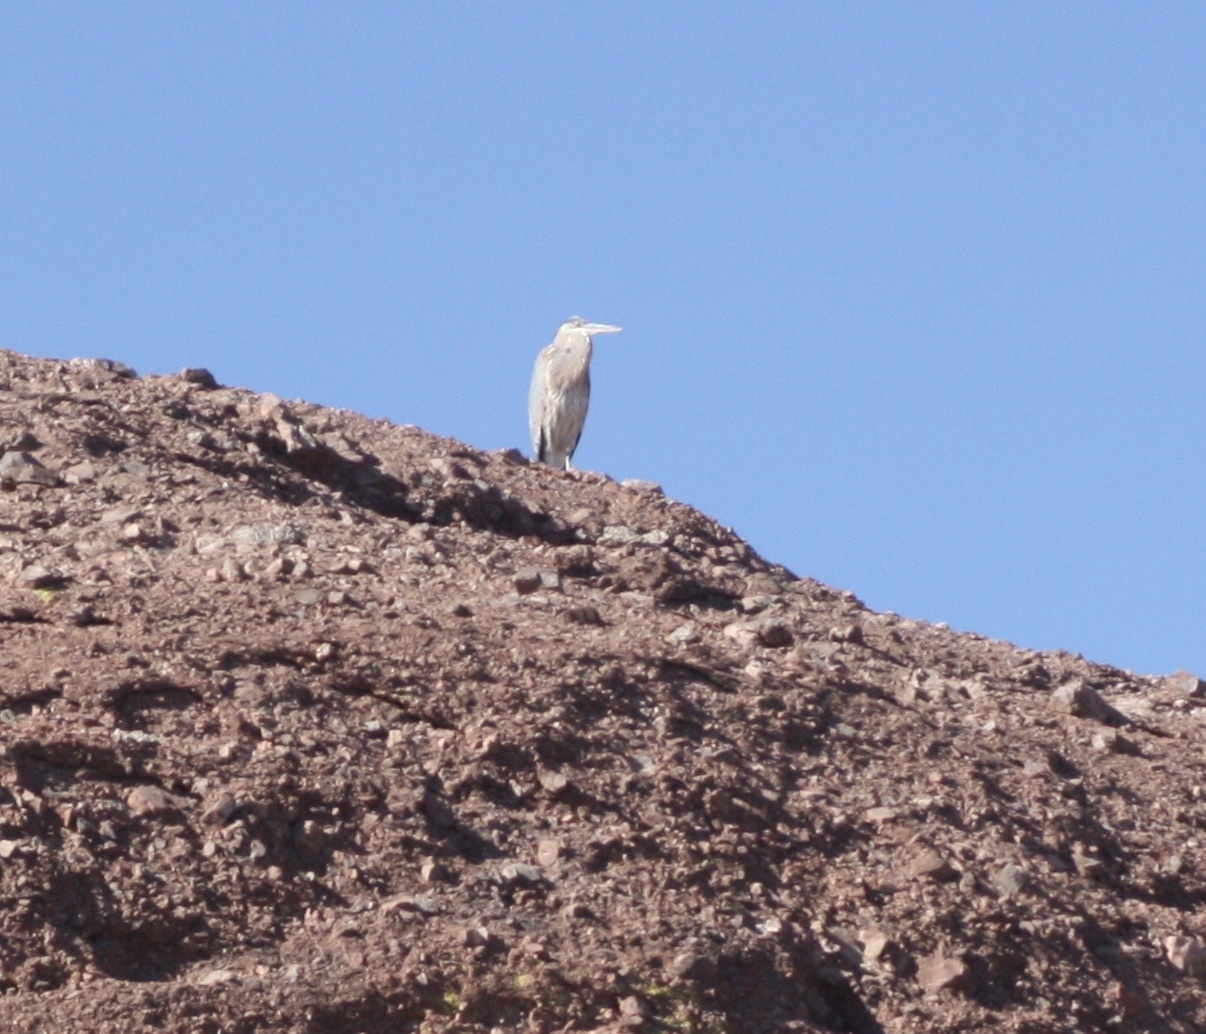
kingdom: Animalia
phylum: Chordata
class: Aves
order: Pelecaniformes
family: Ardeidae
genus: Ardea
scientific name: Ardea herodias
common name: Great blue heron
